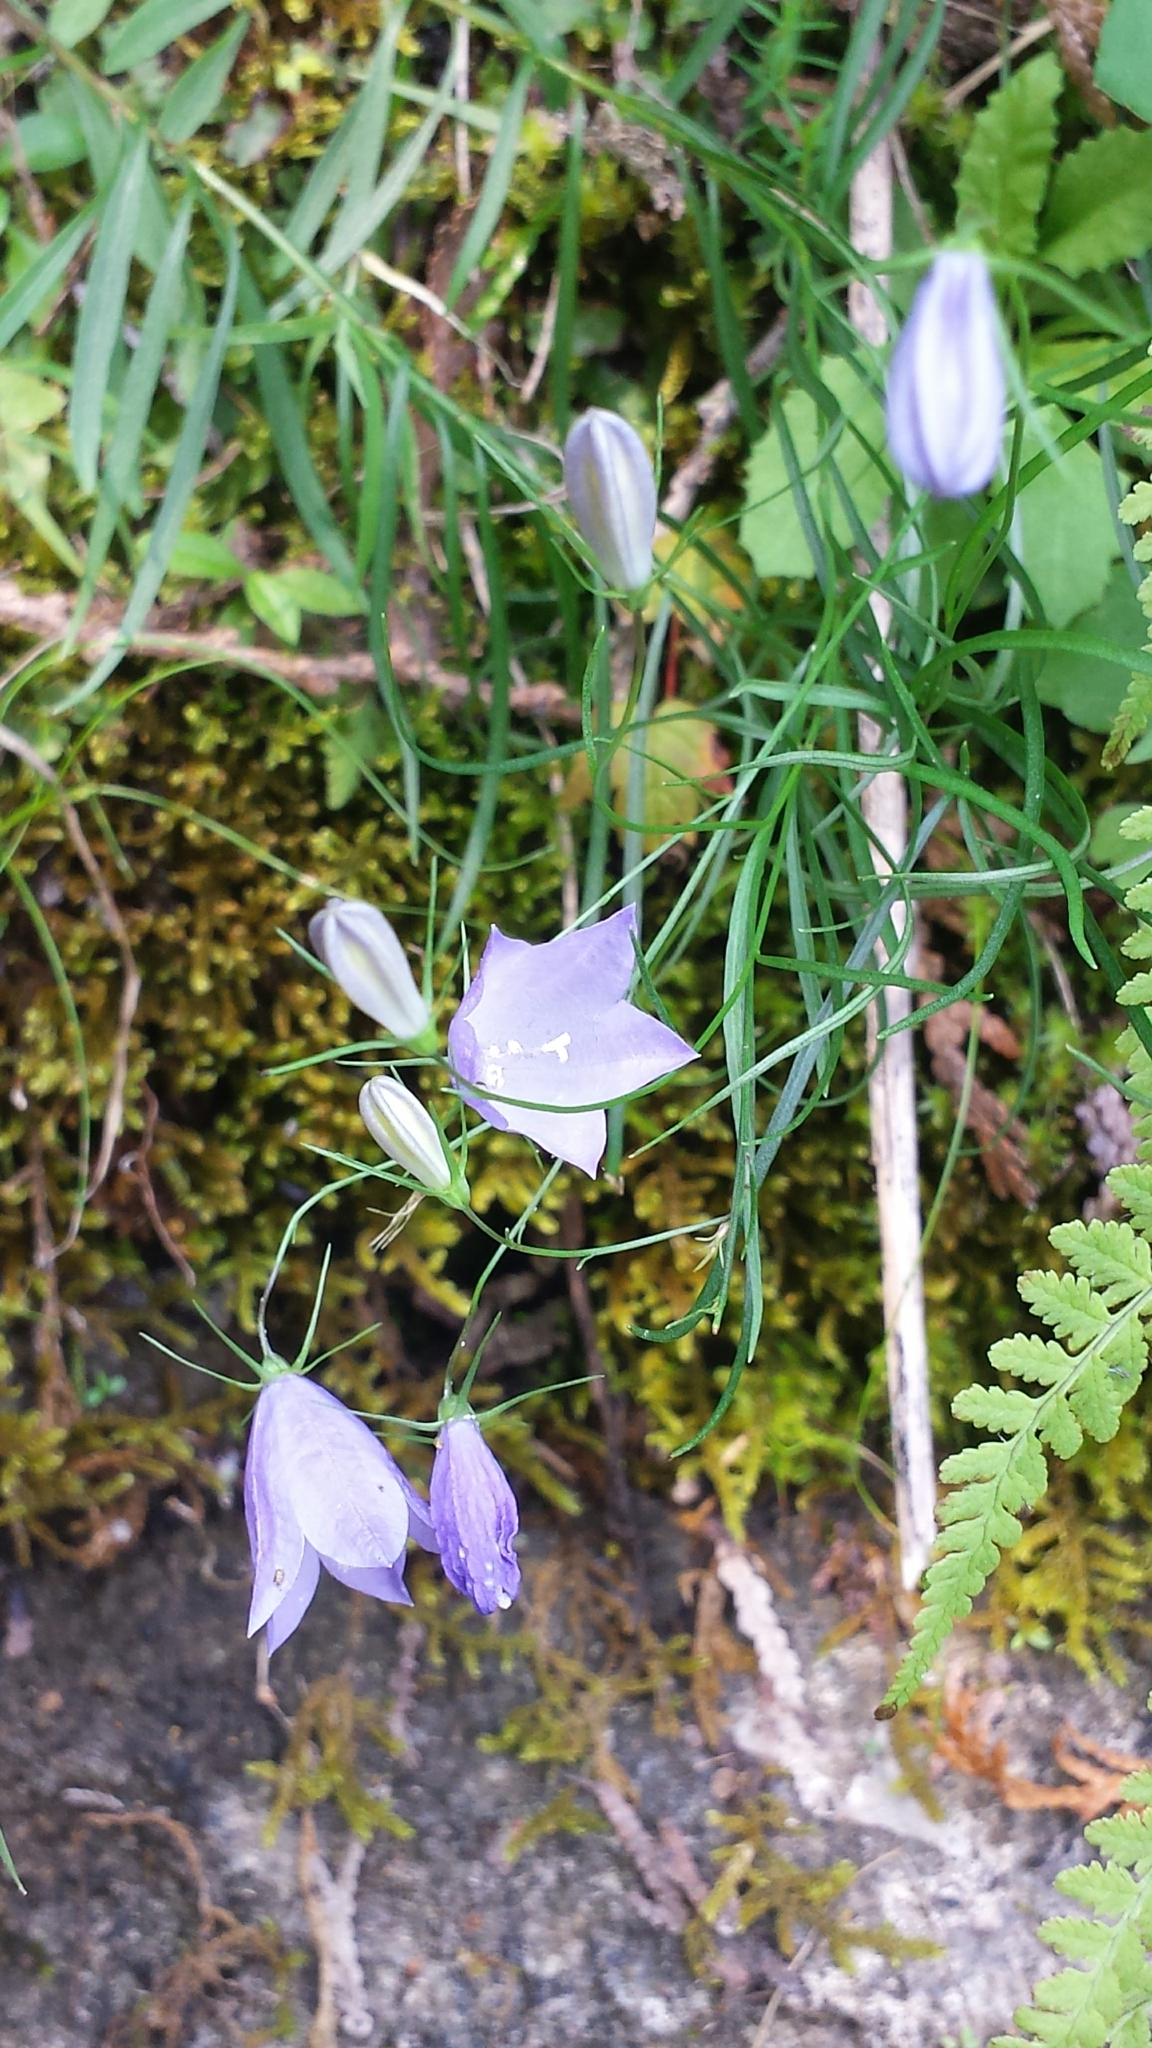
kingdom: Plantae
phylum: Tracheophyta
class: Magnoliopsida
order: Asterales
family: Campanulaceae
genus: Campanula
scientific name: Campanula intercedens
